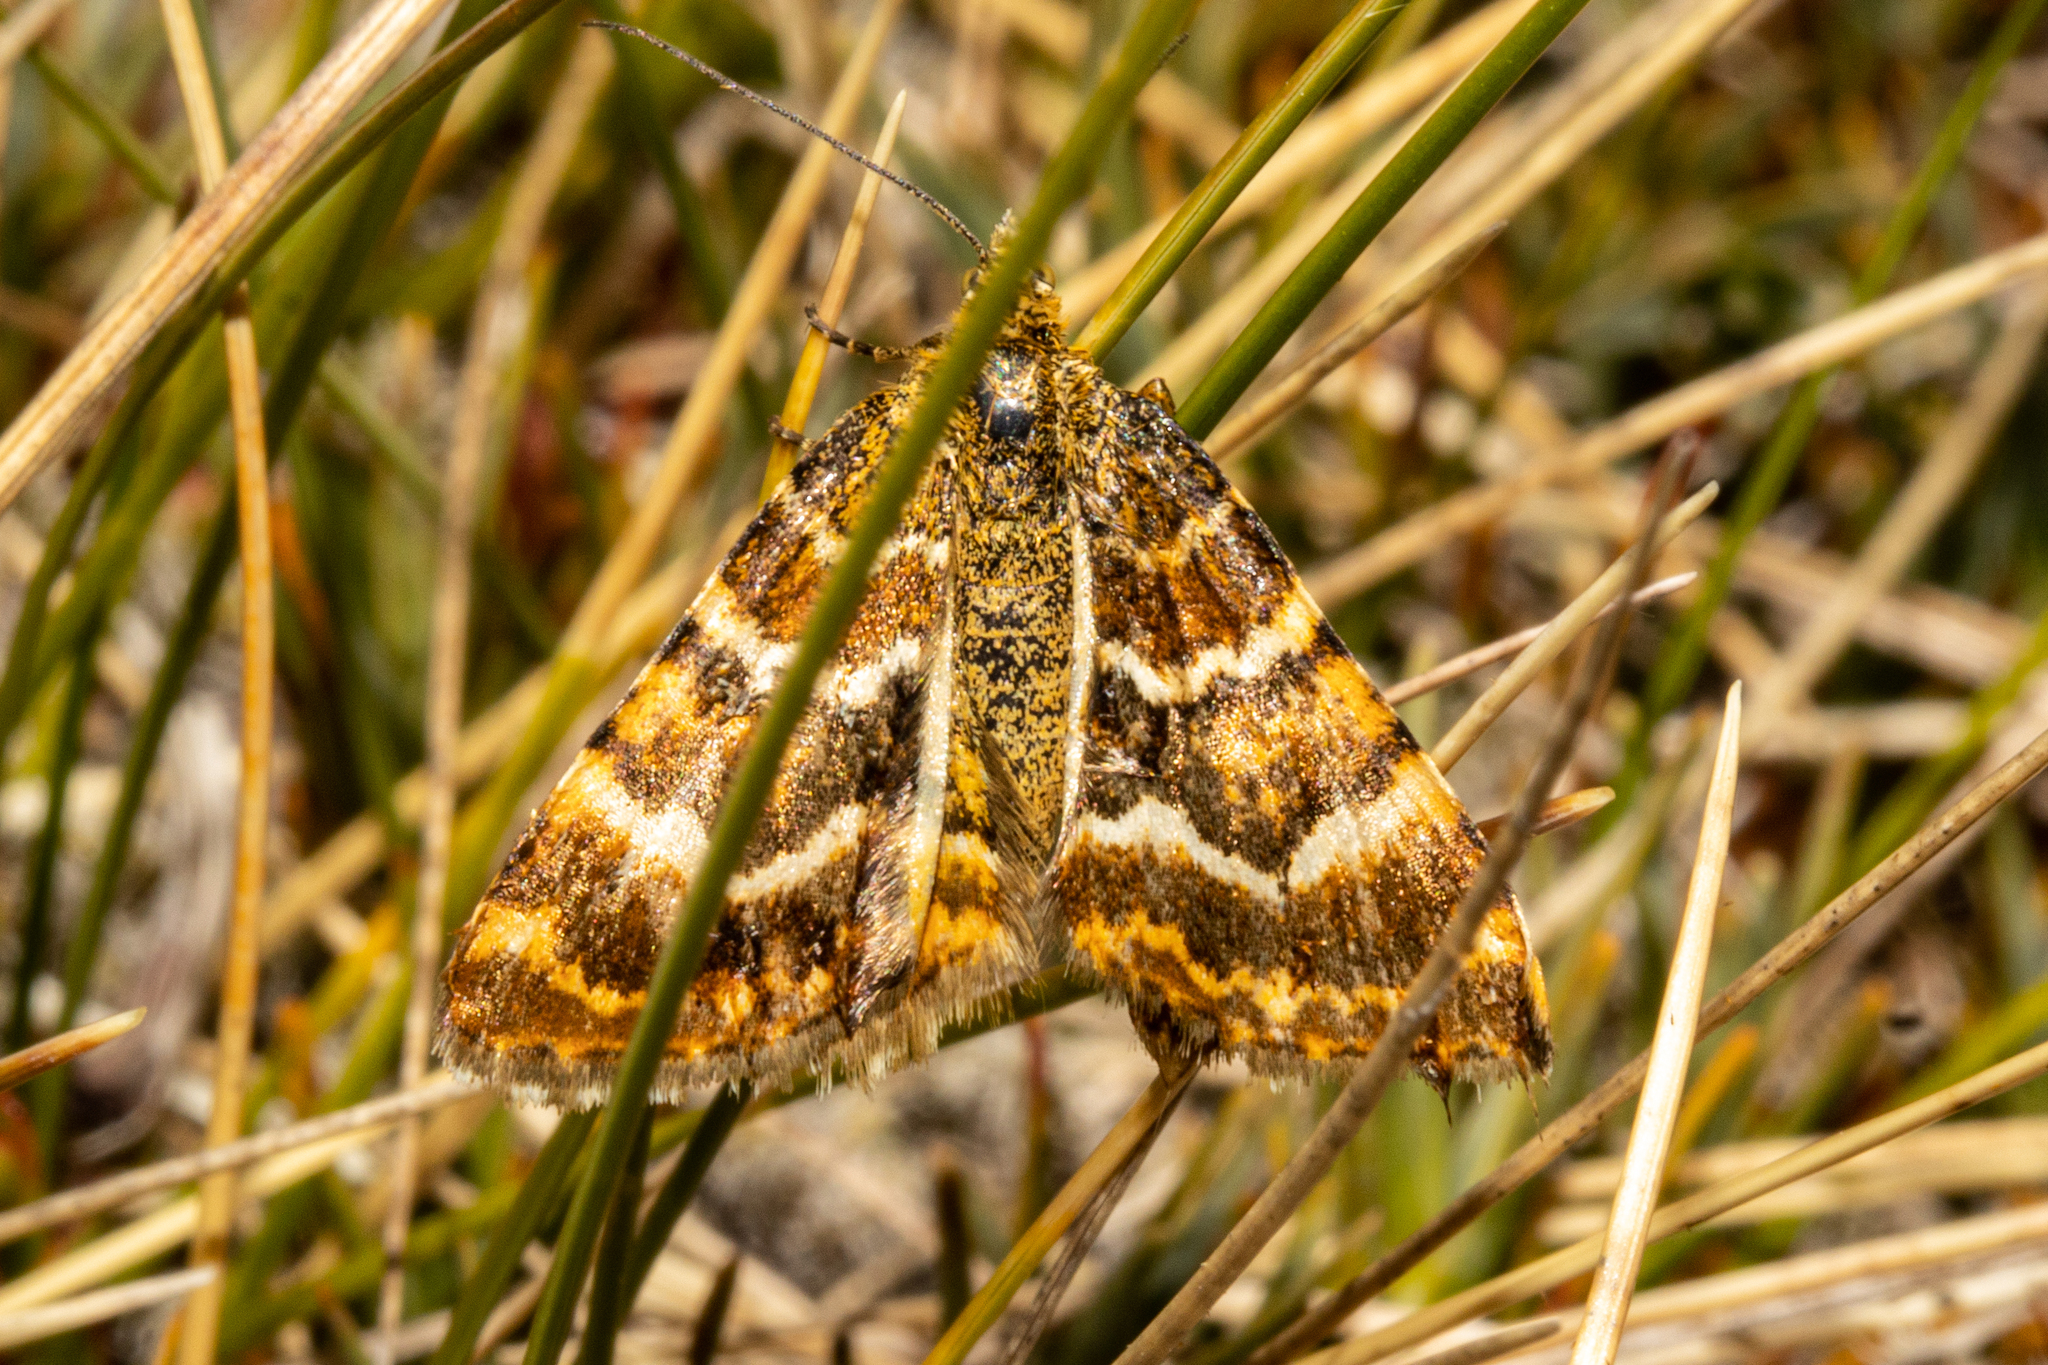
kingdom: Animalia
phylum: Arthropoda
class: Insecta
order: Lepidoptera
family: Geometridae
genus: Notoreas
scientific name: Notoreas niphocrena
